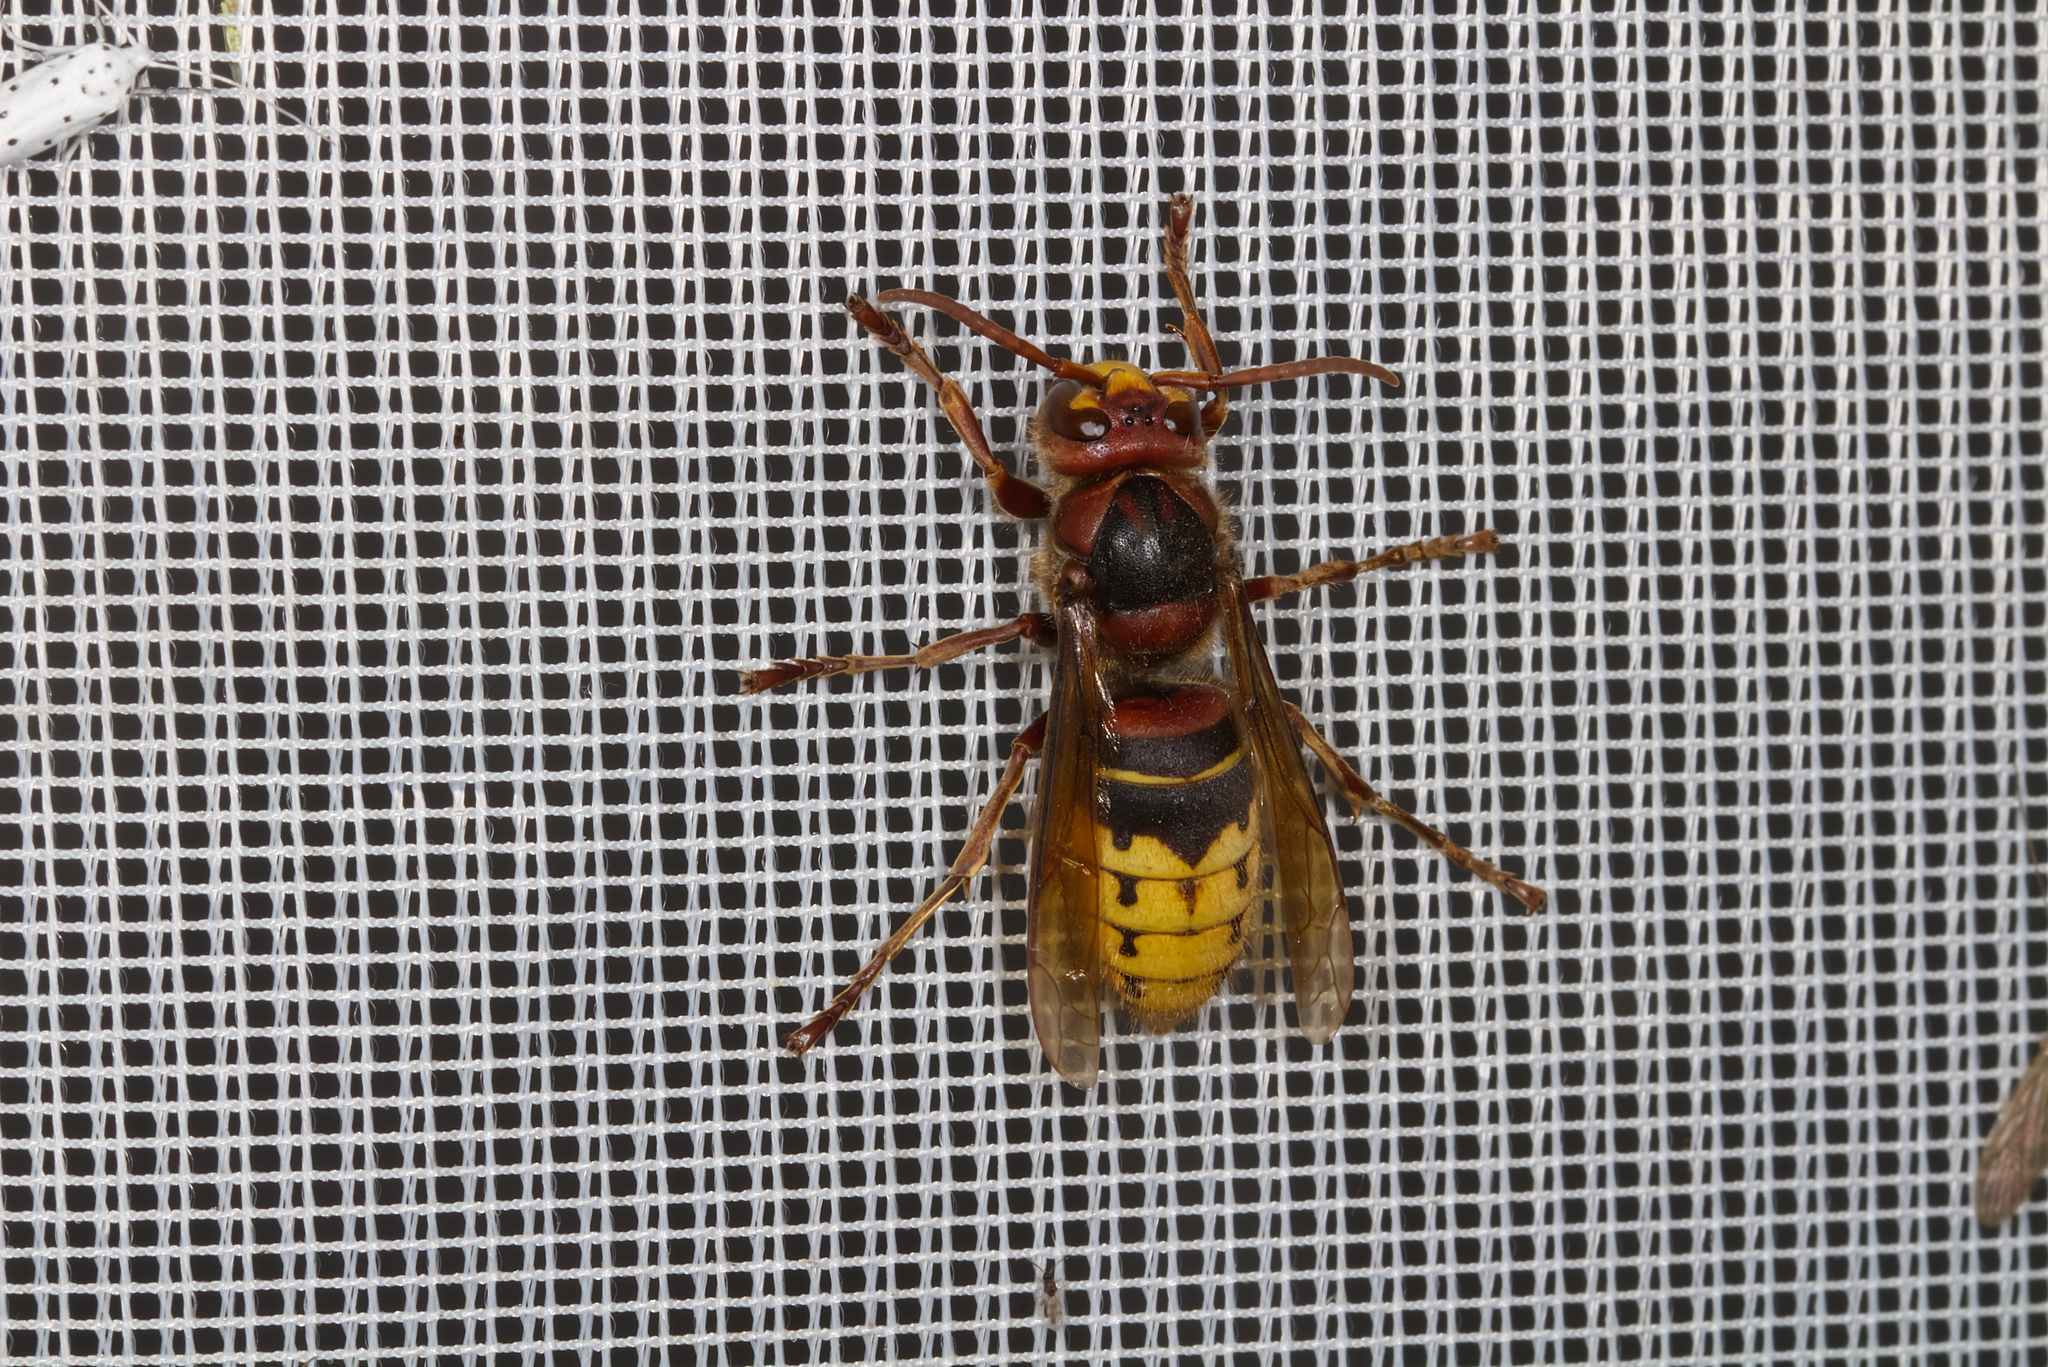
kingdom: Animalia
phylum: Arthropoda
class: Insecta
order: Hymenoptera
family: Vespidae
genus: Vespa
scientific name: Vespa crabro
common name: Hornet
